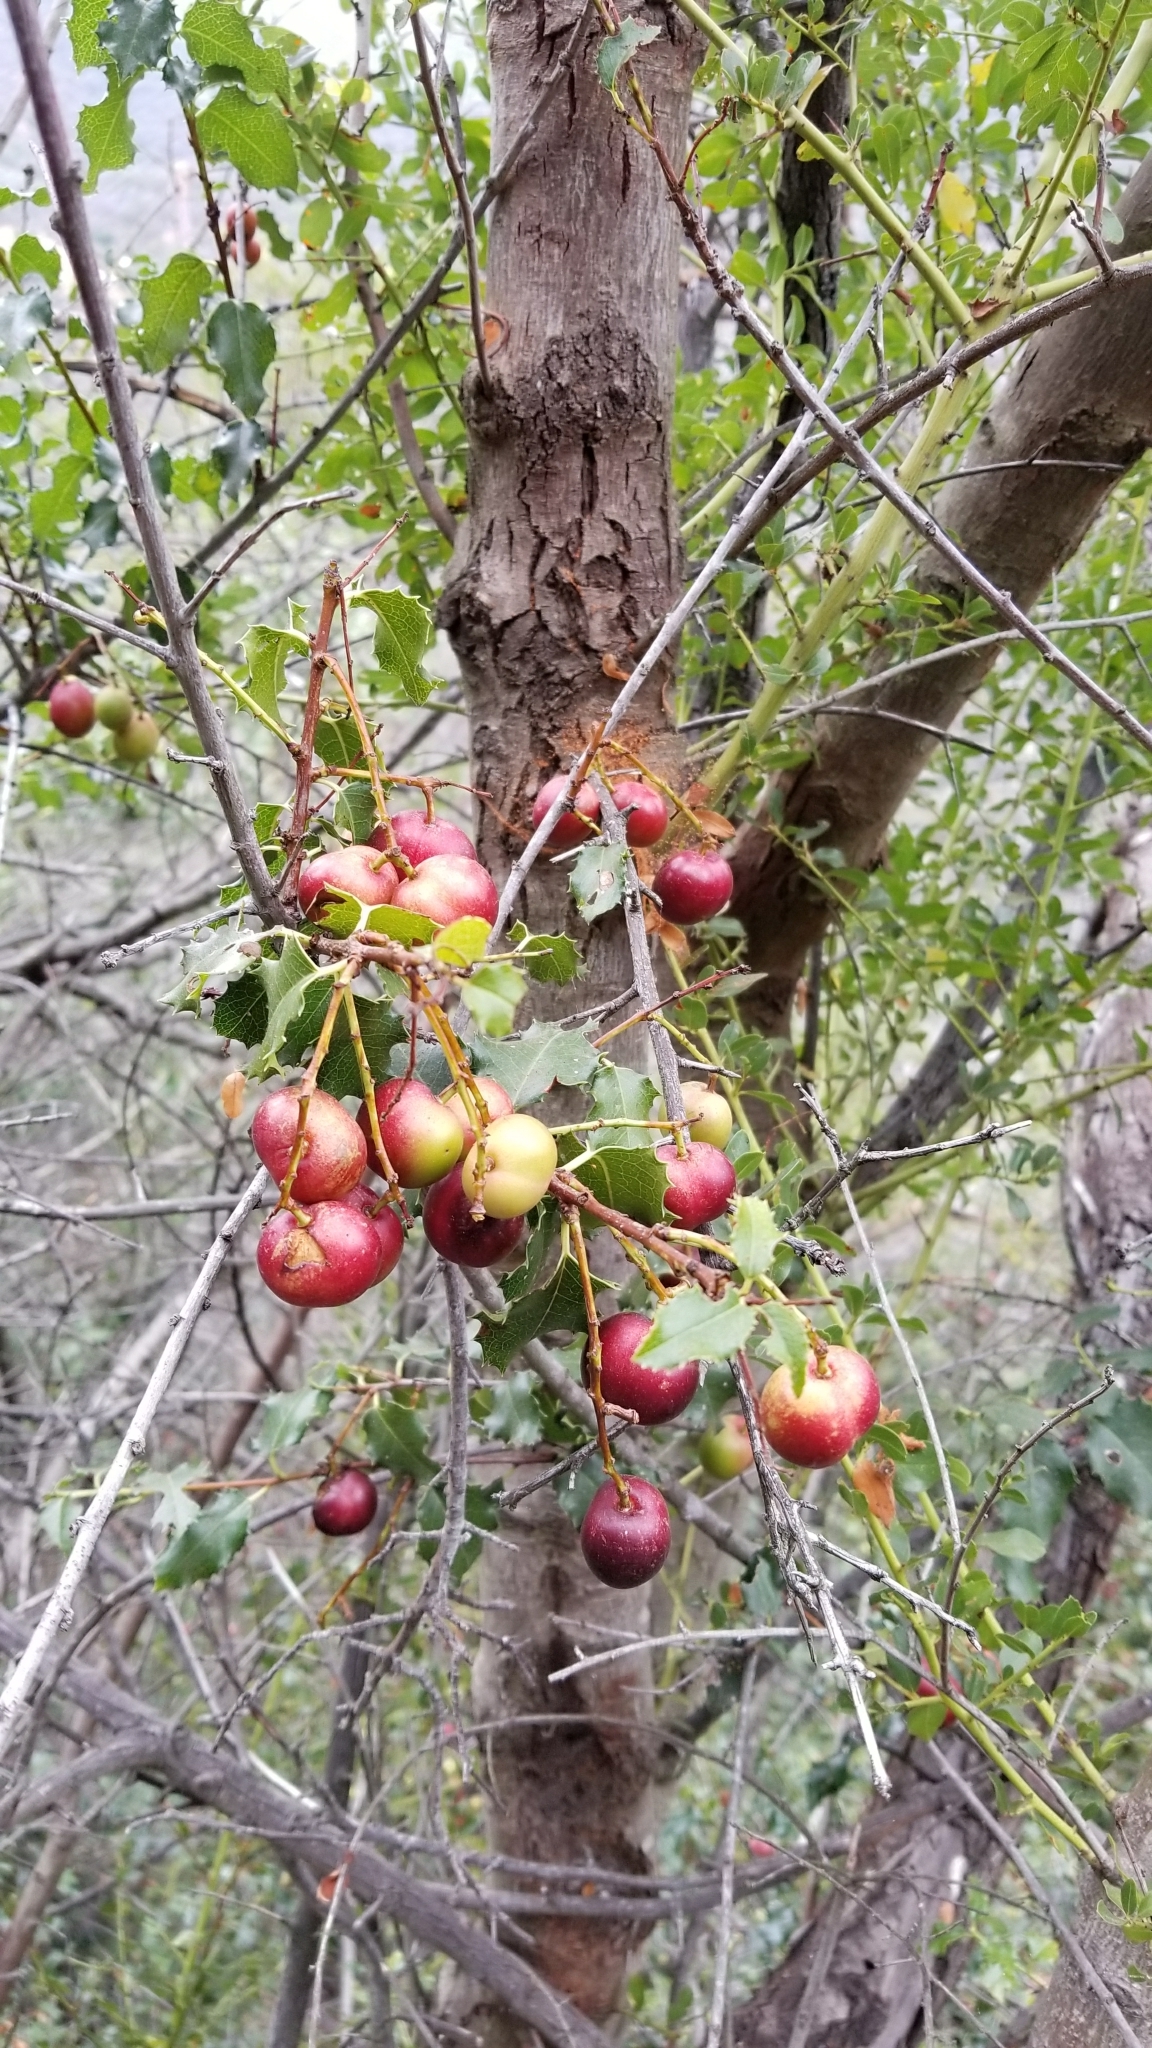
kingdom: Plantae
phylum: Tracheophyta
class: Magnoliopsida
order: Rosales
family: Rosaceae
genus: Prunus
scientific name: Prunus ilicifolia
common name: Hollyleaf cherry
